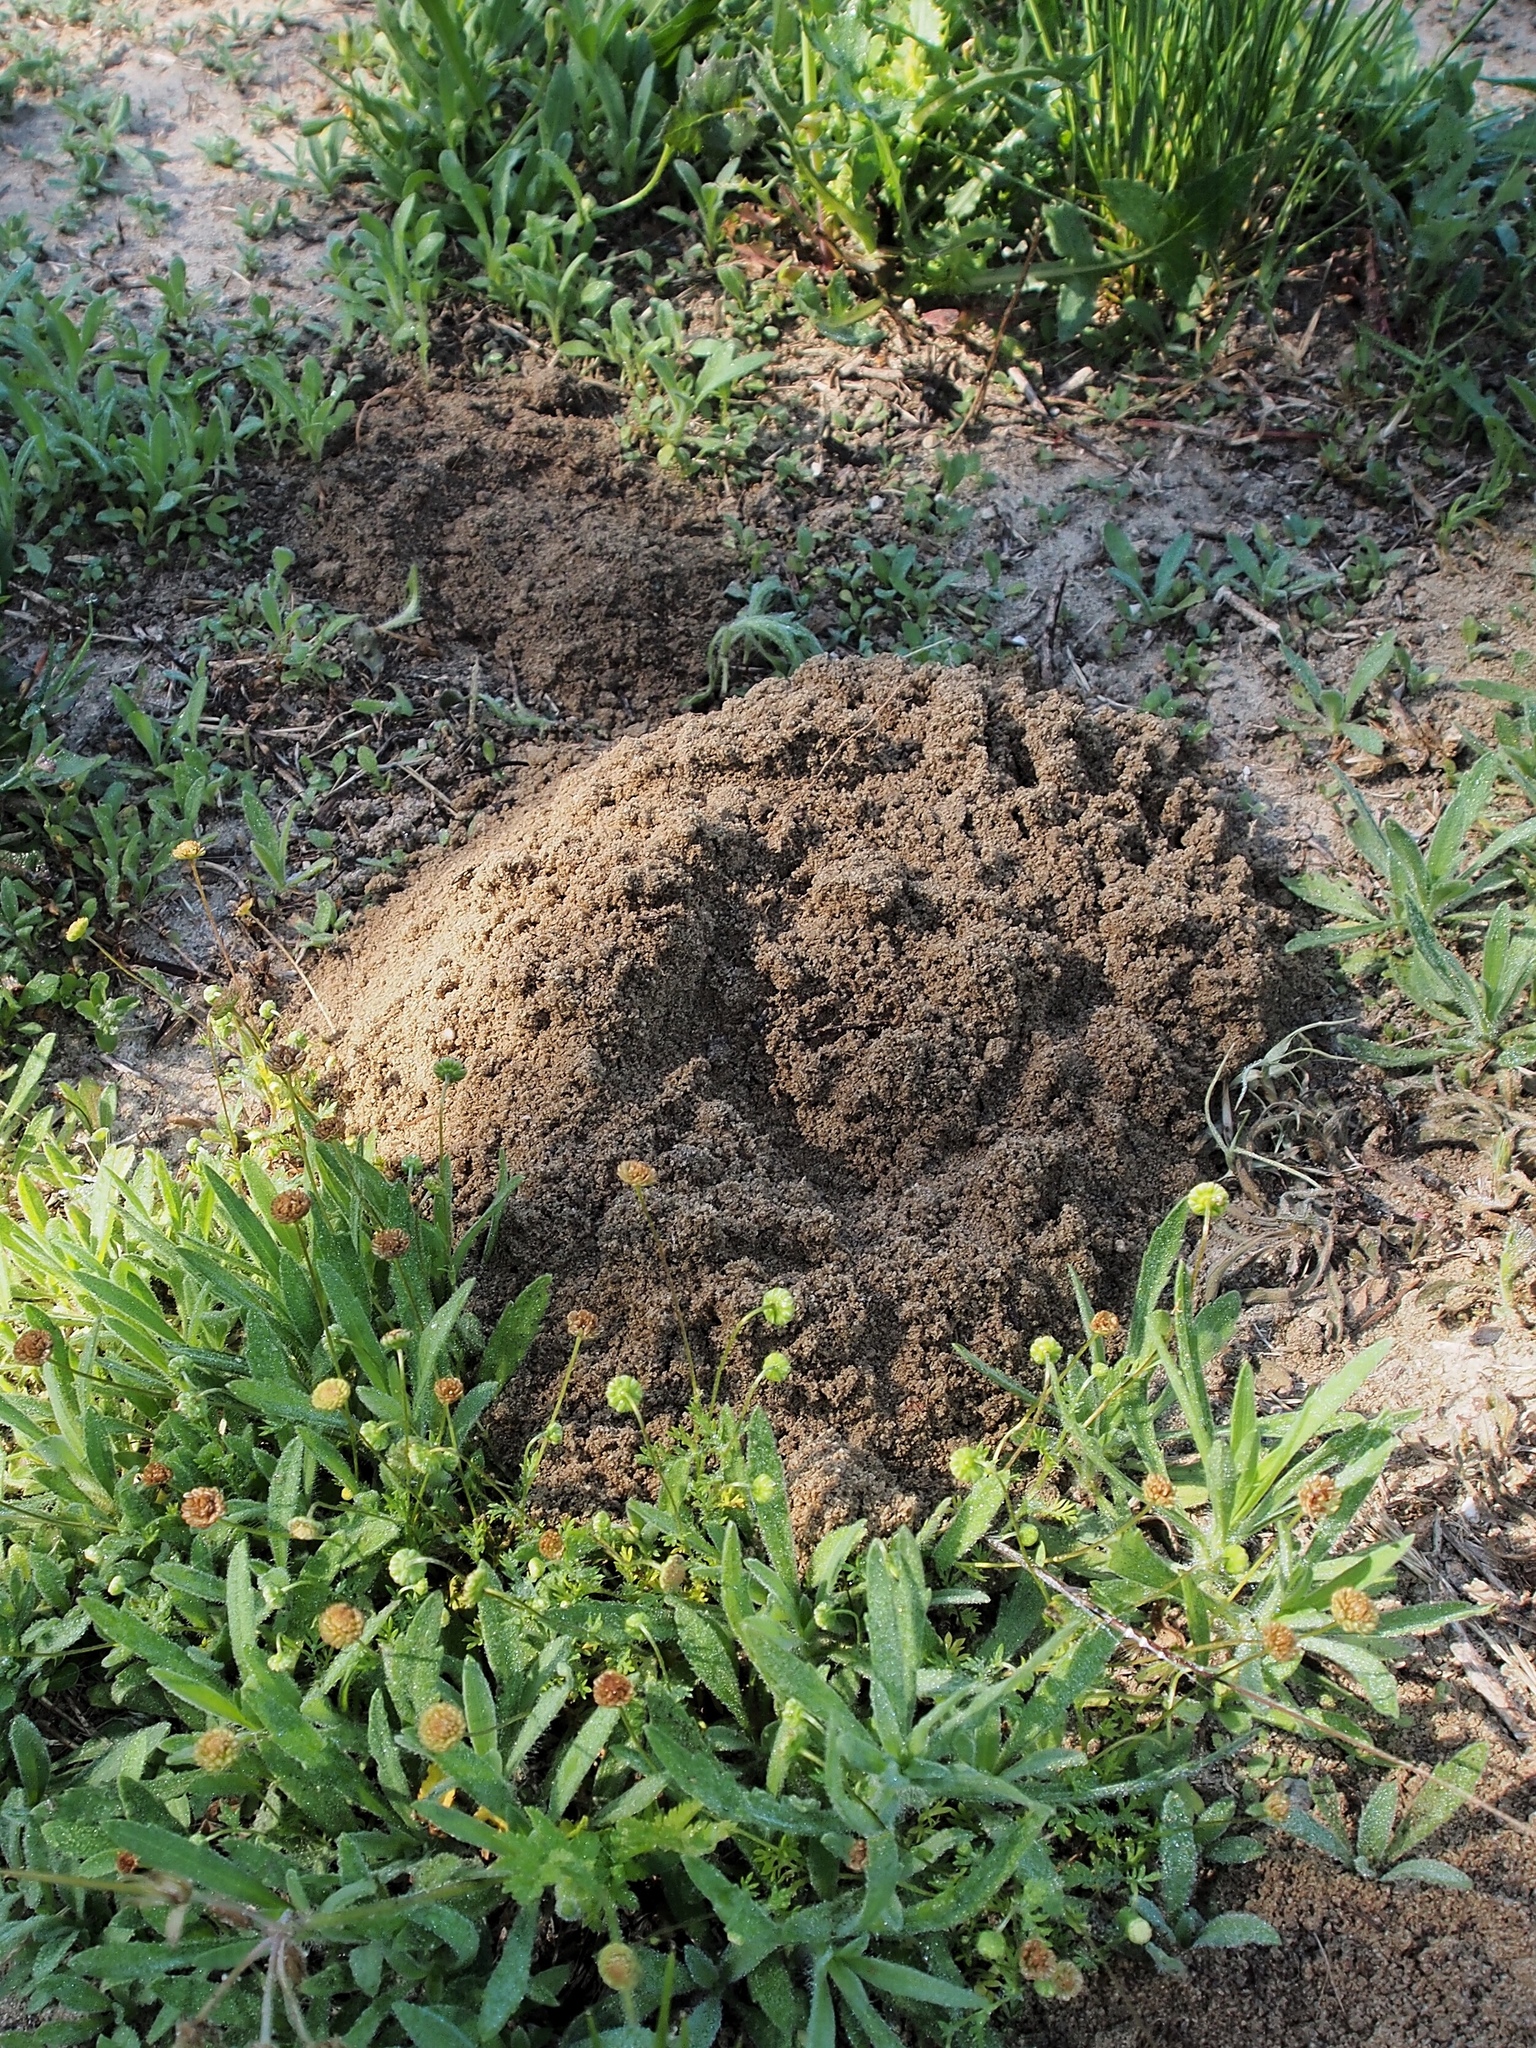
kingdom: Animalia
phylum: Chordata
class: Mammalia
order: Rodentia
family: Geomyidae
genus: Thomomys
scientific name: Thomomys bottae
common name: Botta's pocket gopher
